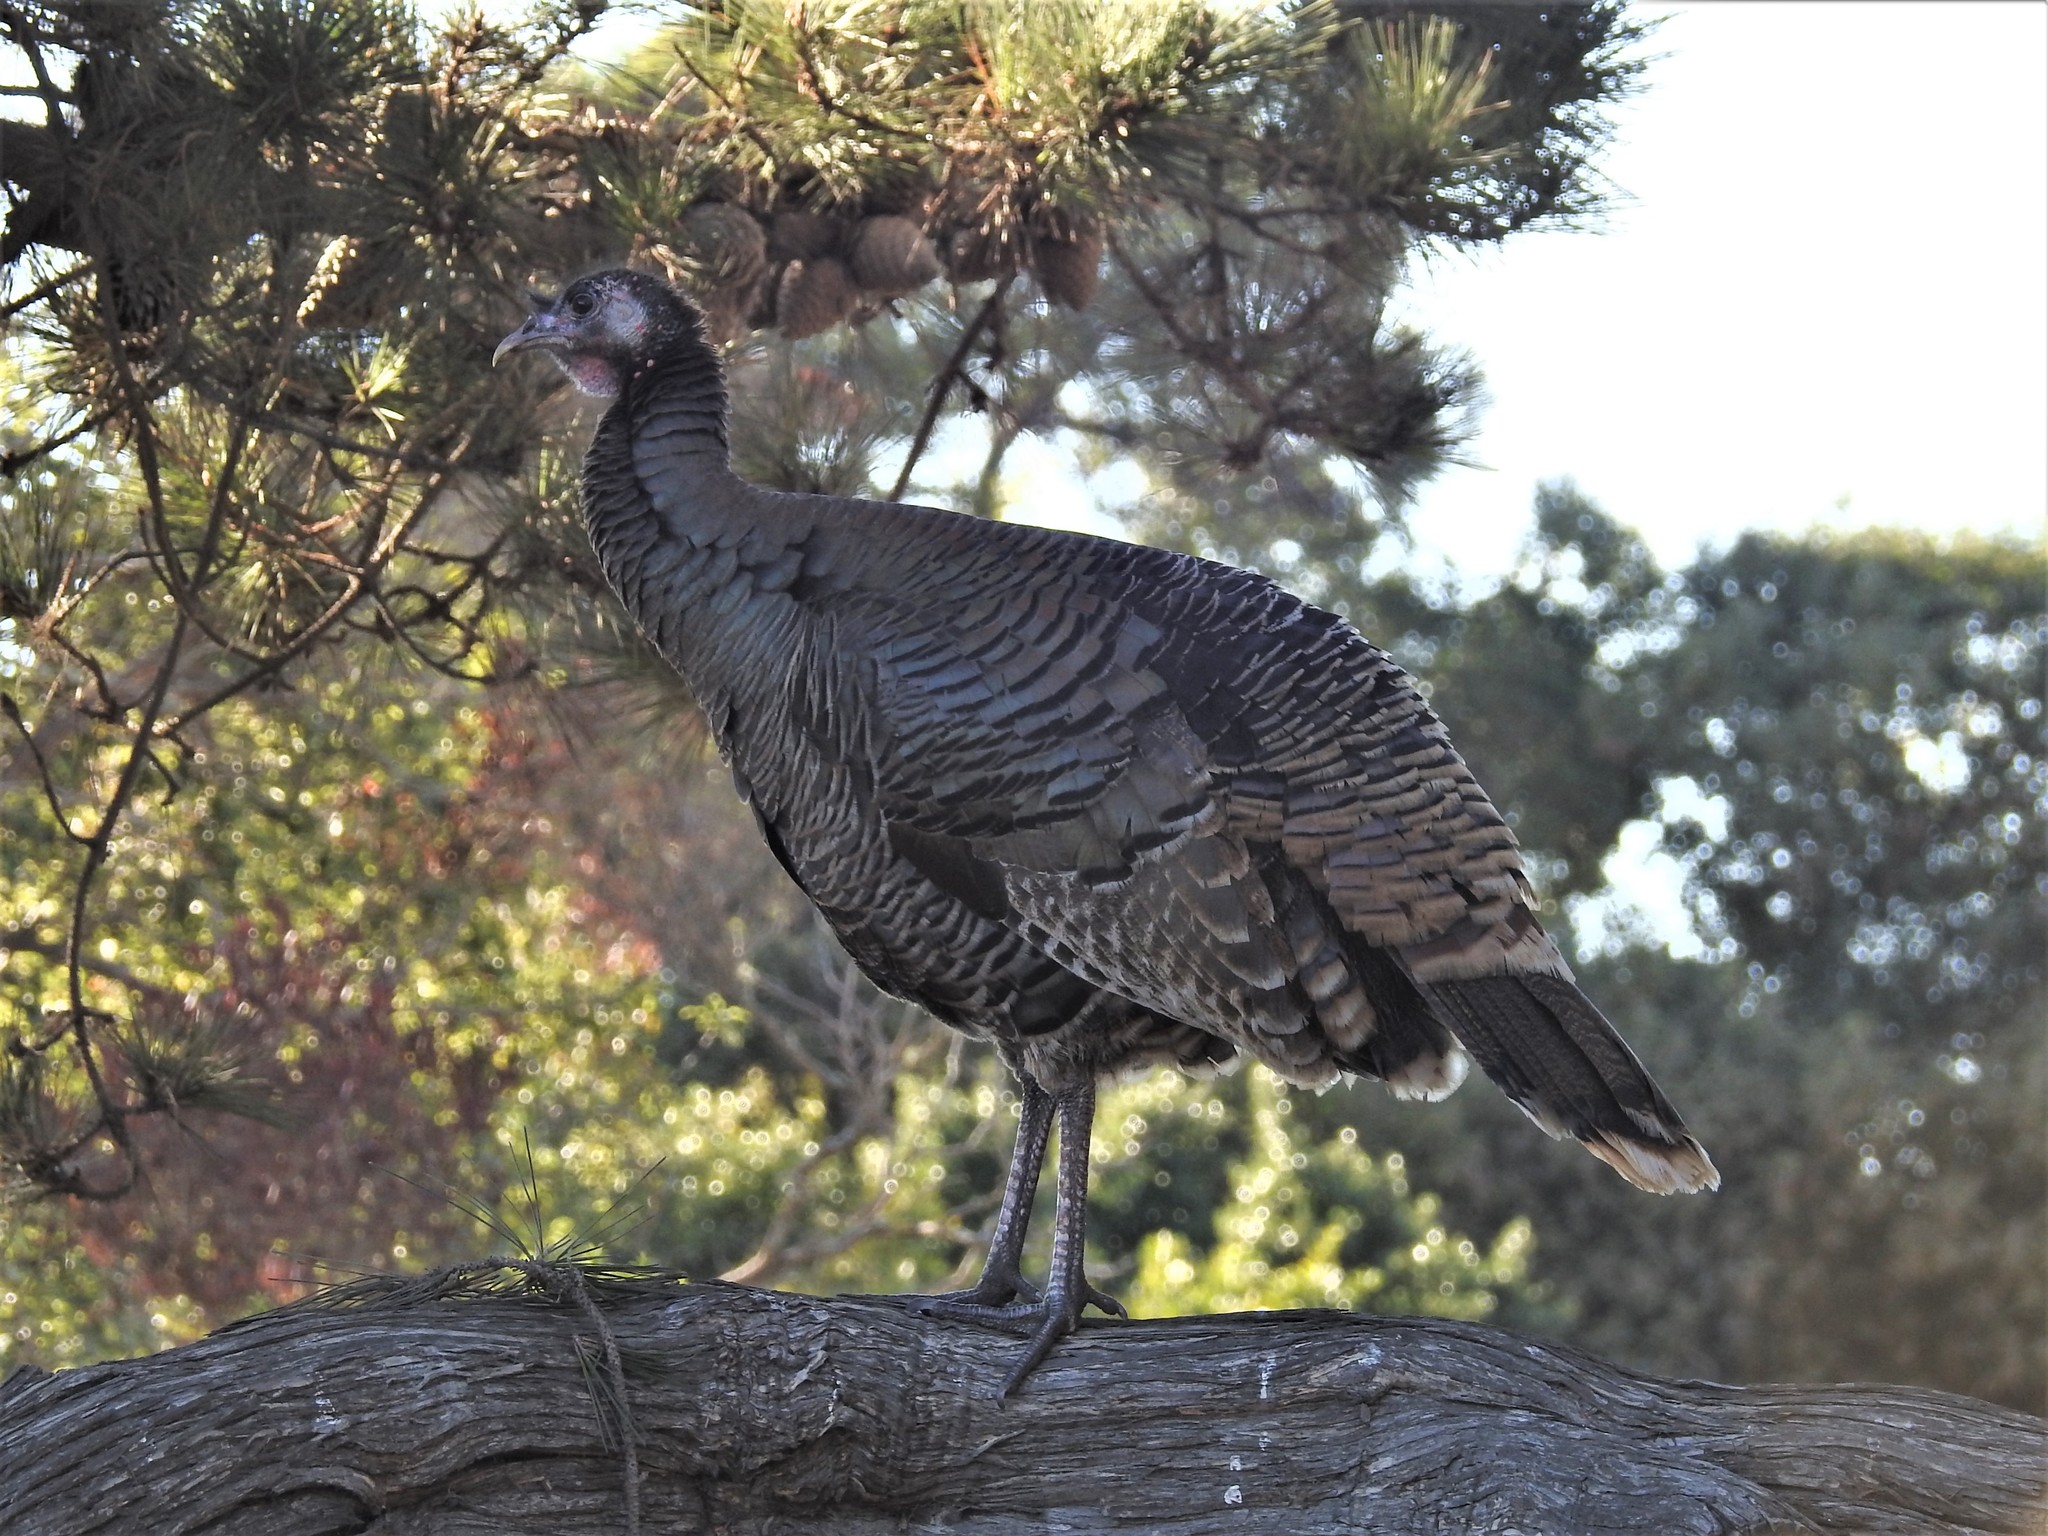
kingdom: Animalia
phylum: Chordata
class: Aves
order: Galliformes
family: Phasianidae
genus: Meleagris
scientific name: Meleagris gallopavo
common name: Wild turkey
